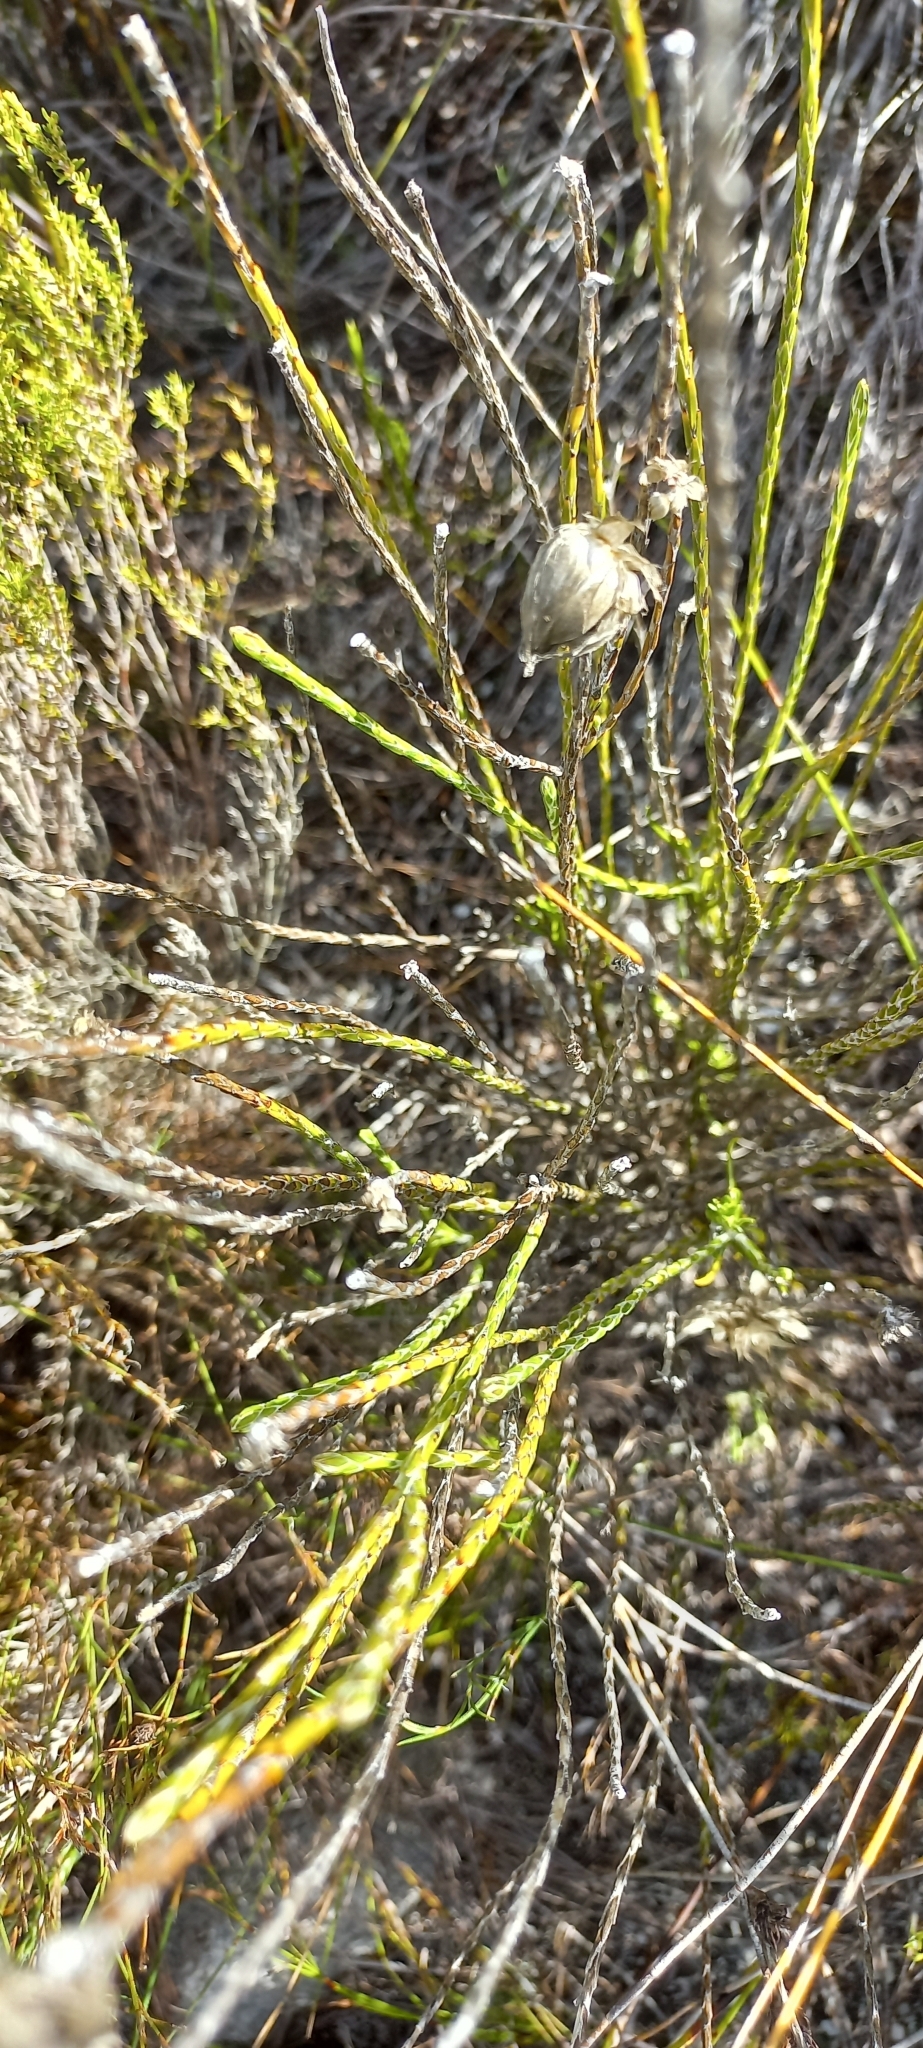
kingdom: Plantae
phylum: Tracheophyta
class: Magnoliopsida
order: Asterales
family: Asteraceae
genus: Edmondia
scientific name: Edmondia sesamoides
